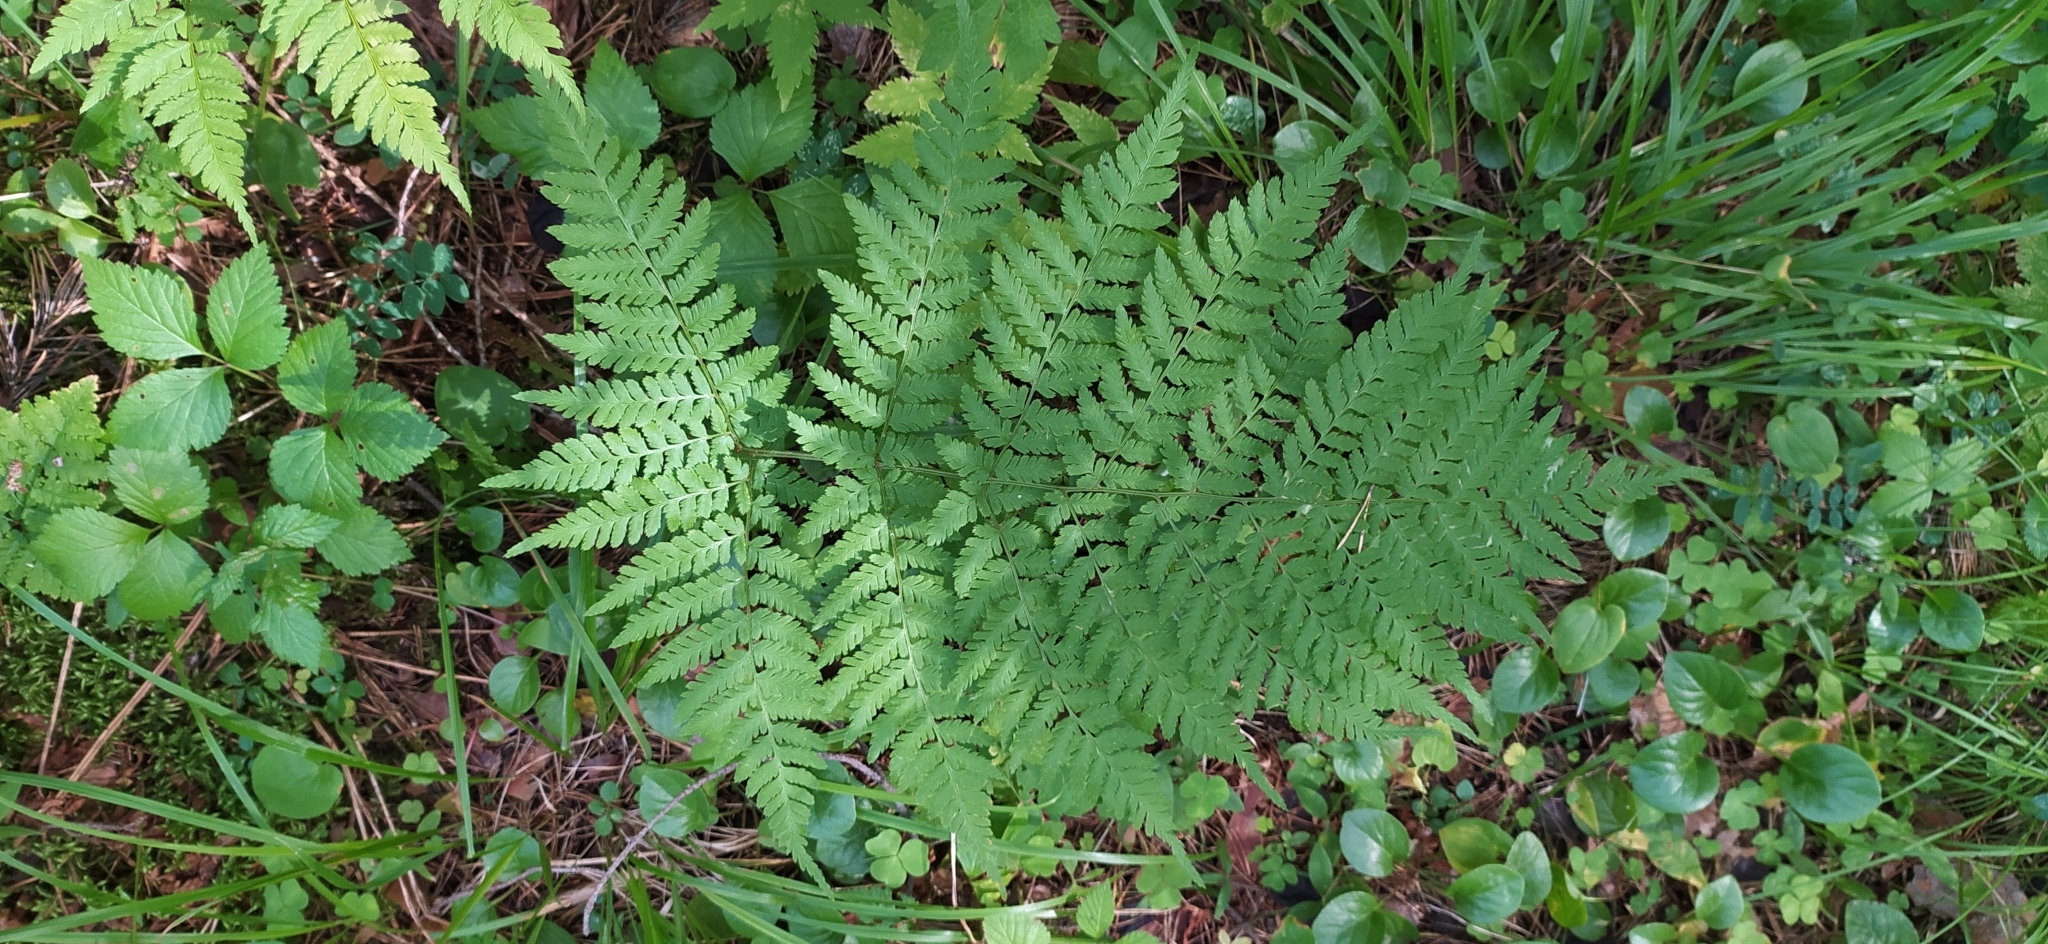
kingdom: Plantae
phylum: Tracheophyta
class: Polypodiopsida
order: Polypodiales
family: Dryopteridaceae
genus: Dryopteris
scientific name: Dryopteris expansa
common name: Northern buckler fern
